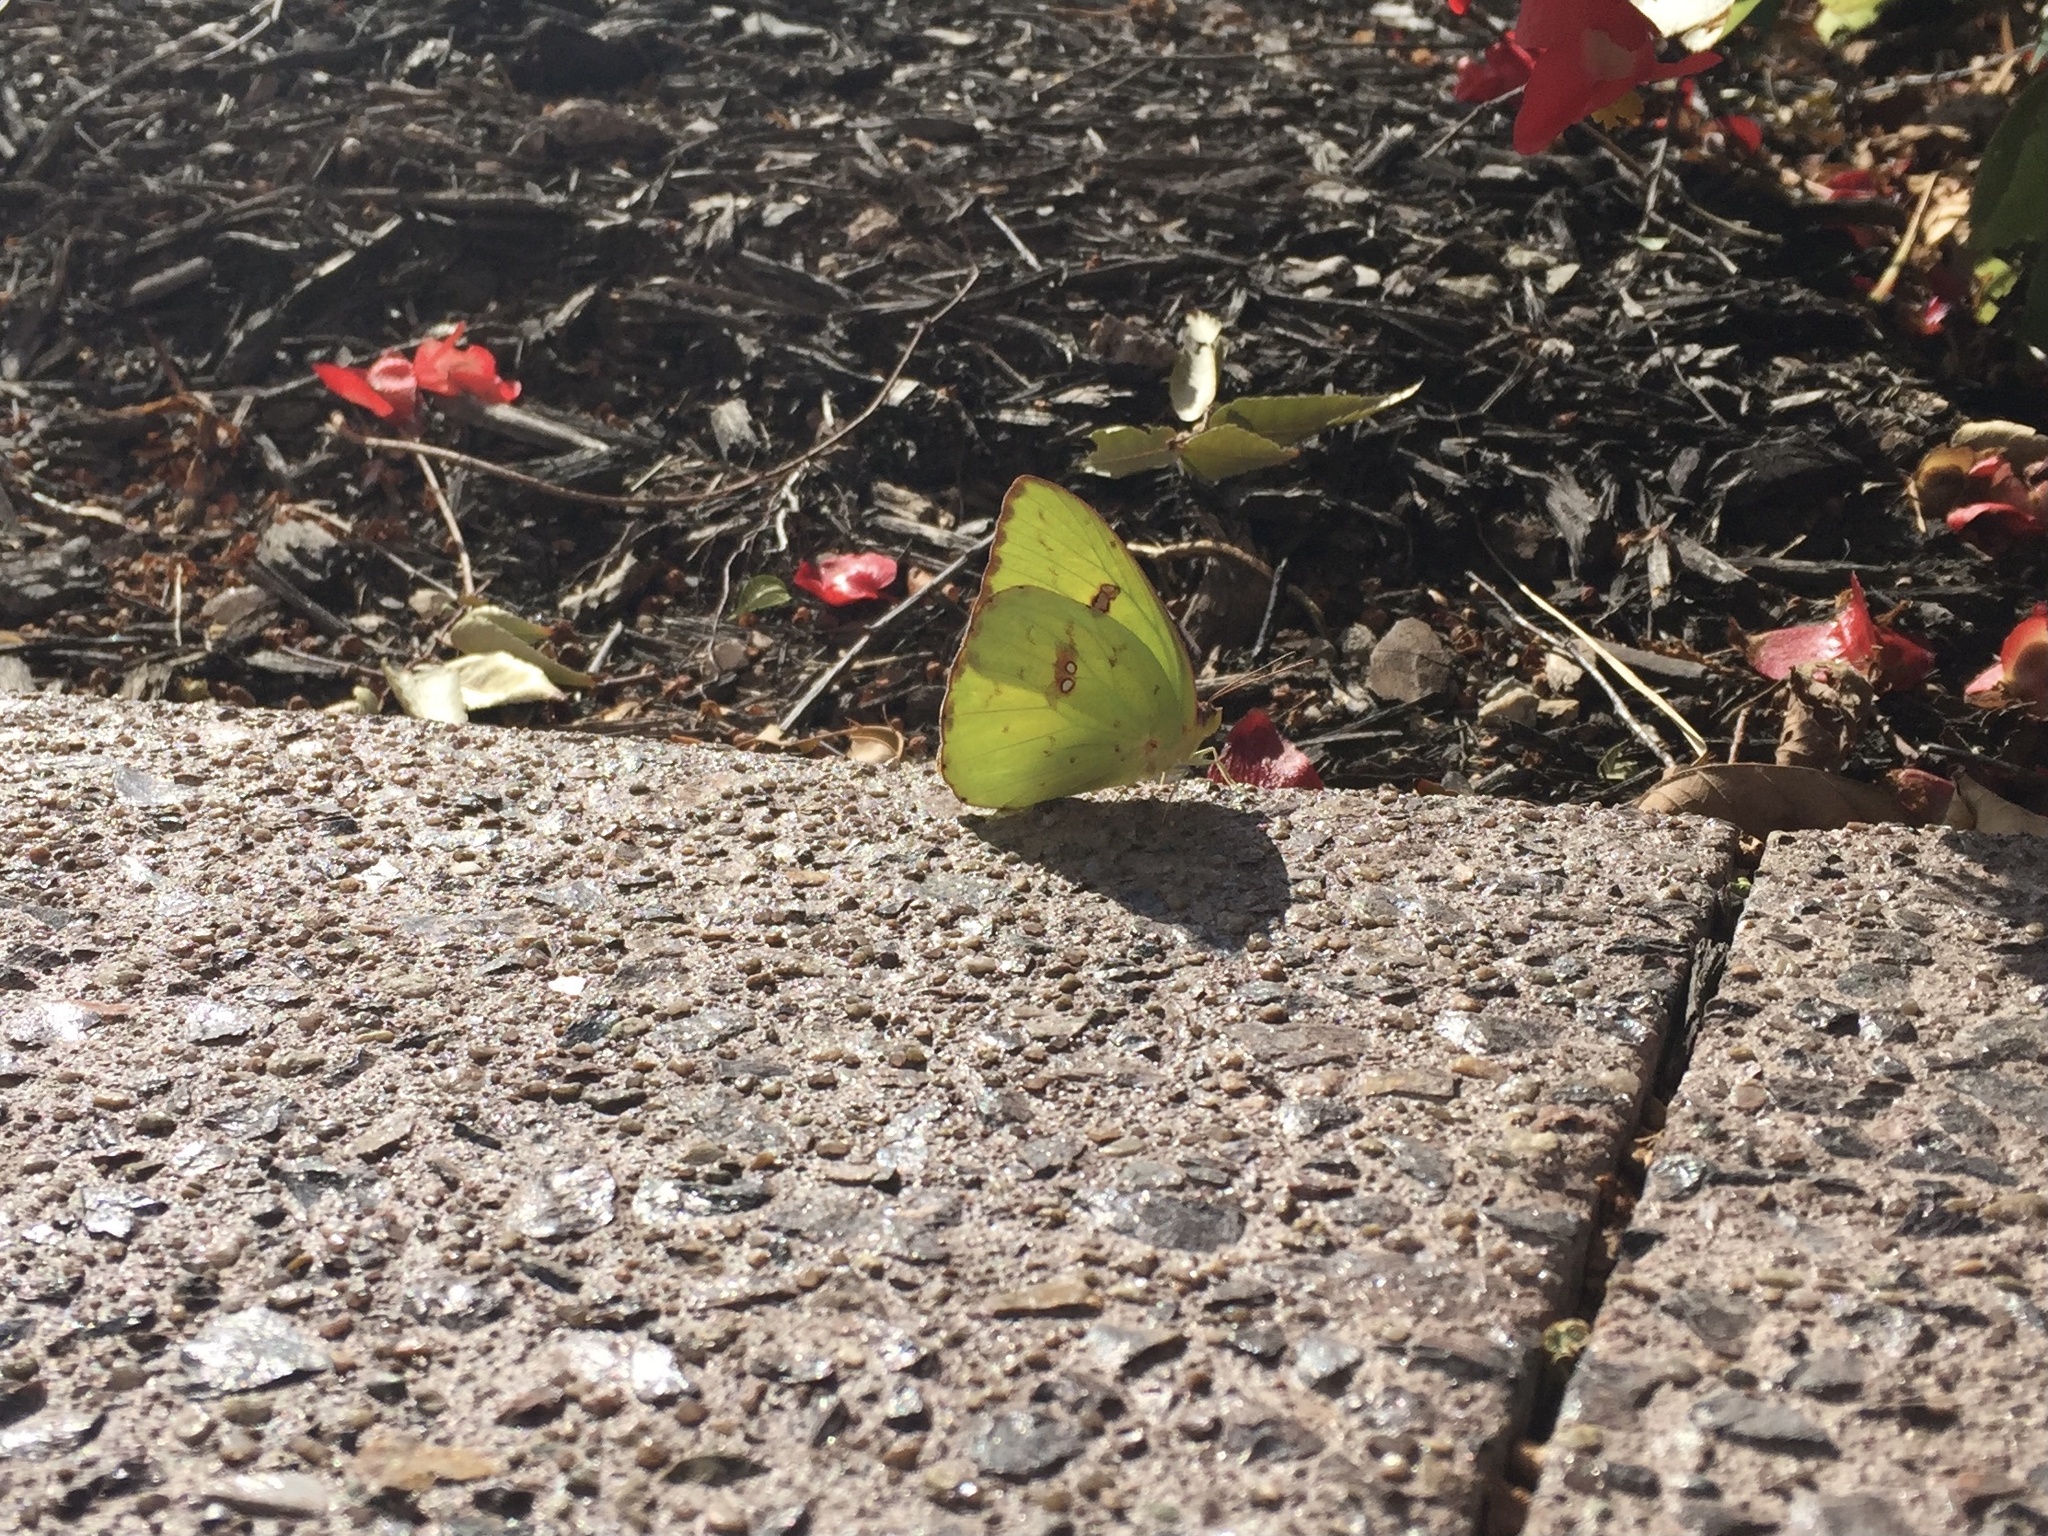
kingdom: Animalia
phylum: Arthropoda
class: Insecta
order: Lepidoptera
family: Pieridae
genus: Phoebis
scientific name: Phoebis sennae
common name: Cloudless sulphur
